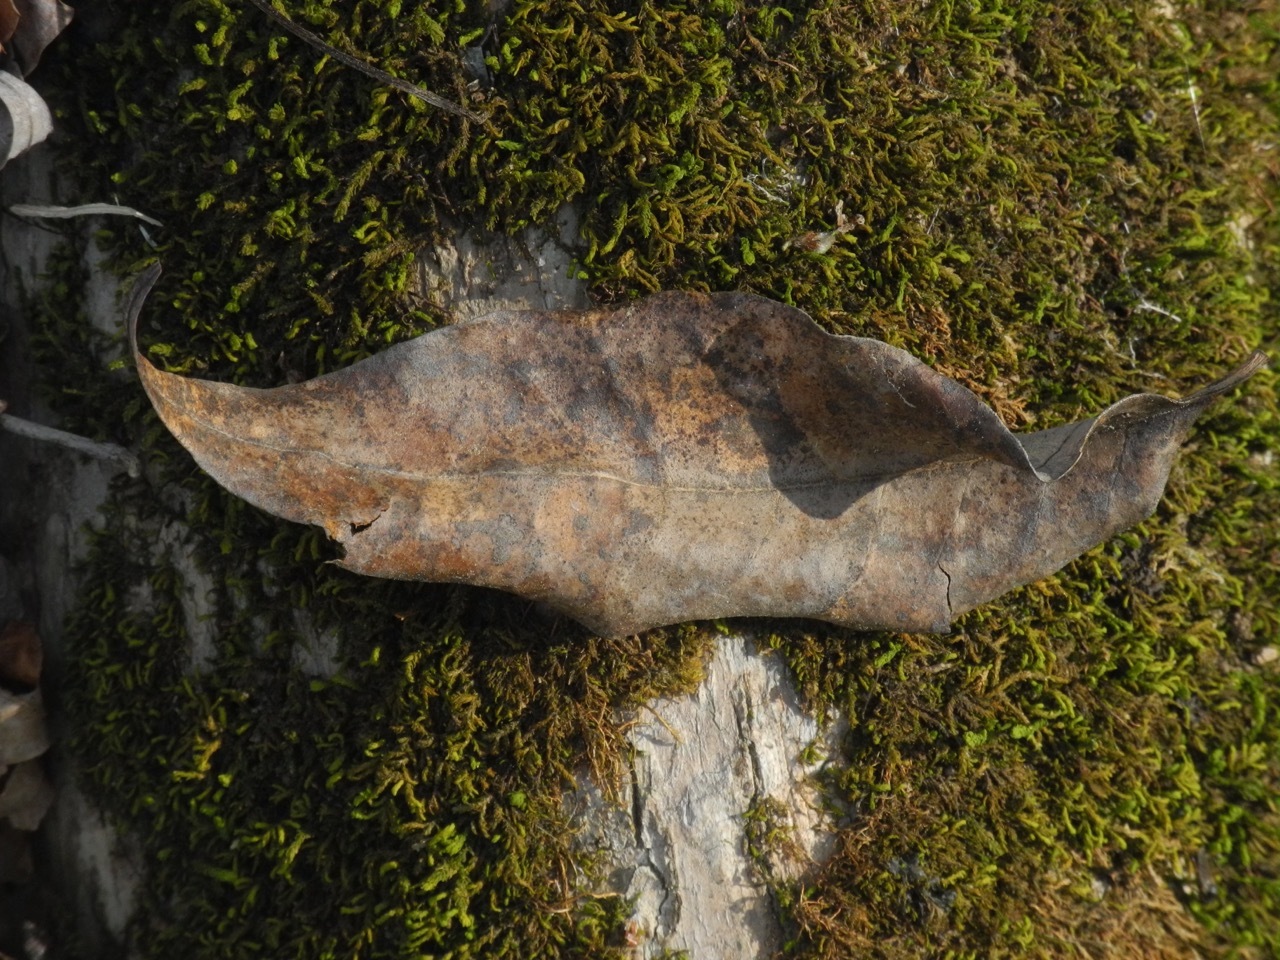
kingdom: Plantae
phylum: Tracheophyta
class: Magnoliopsida
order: Lamiales
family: Oleaceae
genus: Fraxinus
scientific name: Fraxinus americana
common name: White ash
